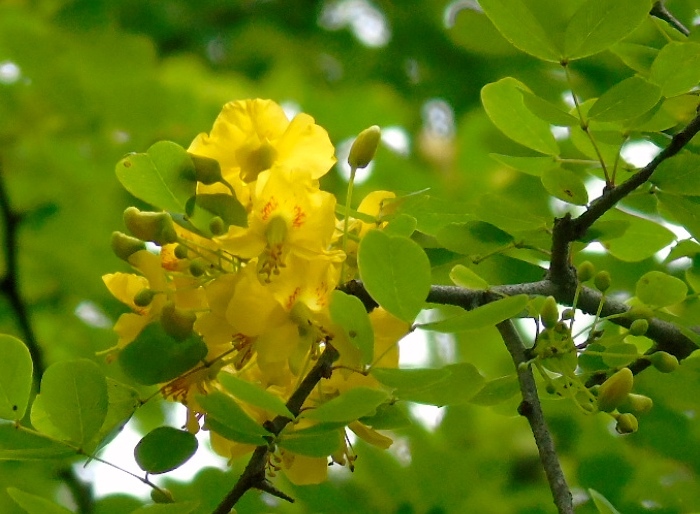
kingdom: Plantae
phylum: Tracheophyta
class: Magnoliopsida
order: Fabales
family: Fabaceae
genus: Haematoxylum
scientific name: Haematoxylum brasiletto
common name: Peachwood
